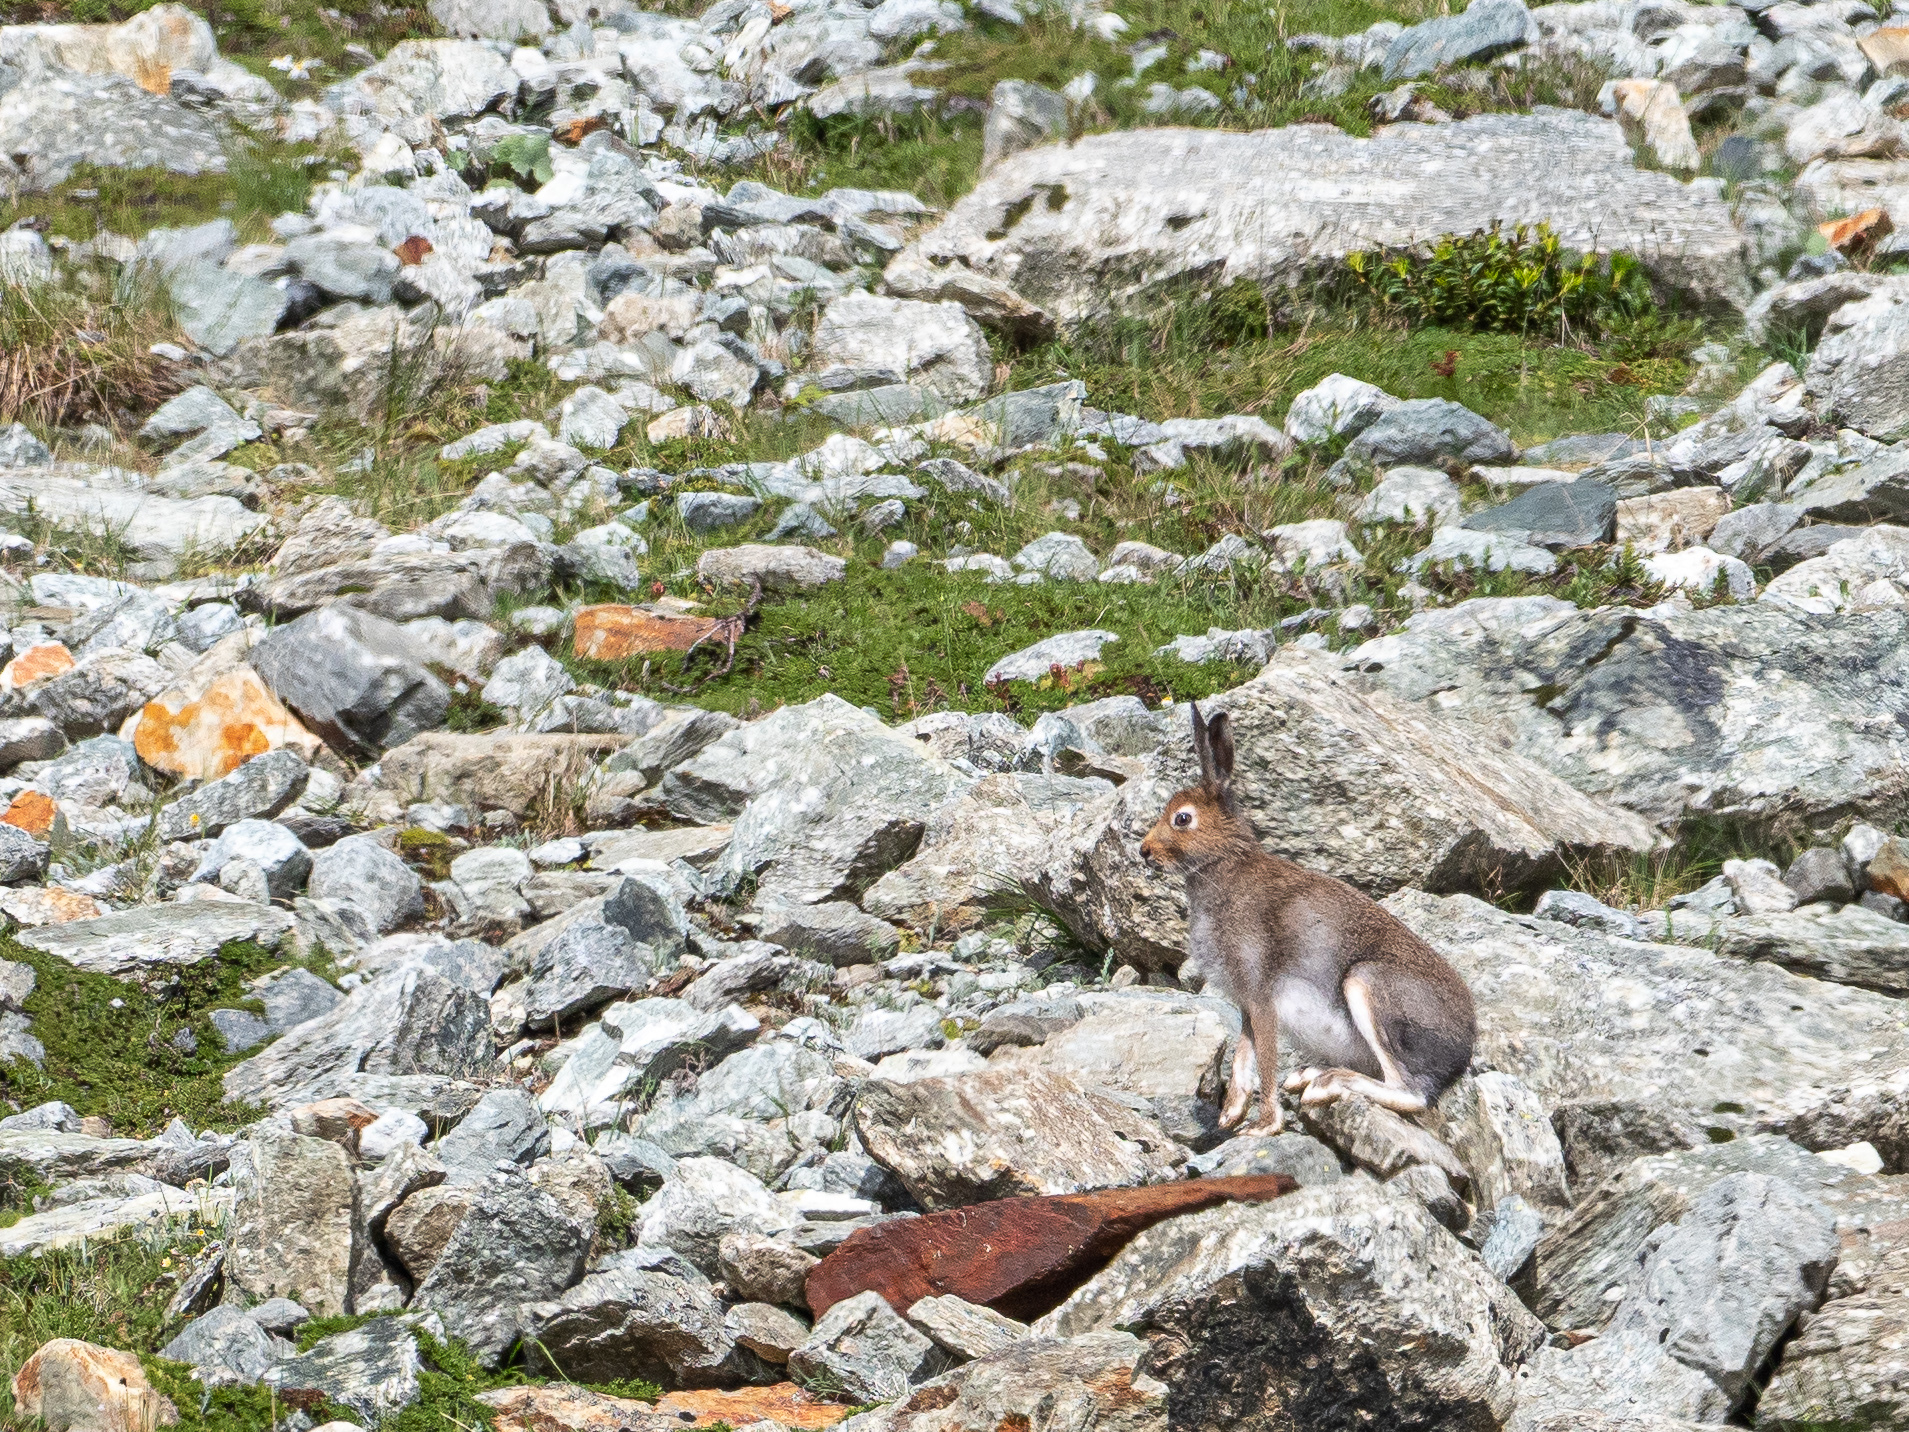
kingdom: Animalia
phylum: Chordata
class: Mammalia
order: Lagomorpha
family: Leporidae
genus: Lepus
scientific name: Lepus timidus
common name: Mountain hare
